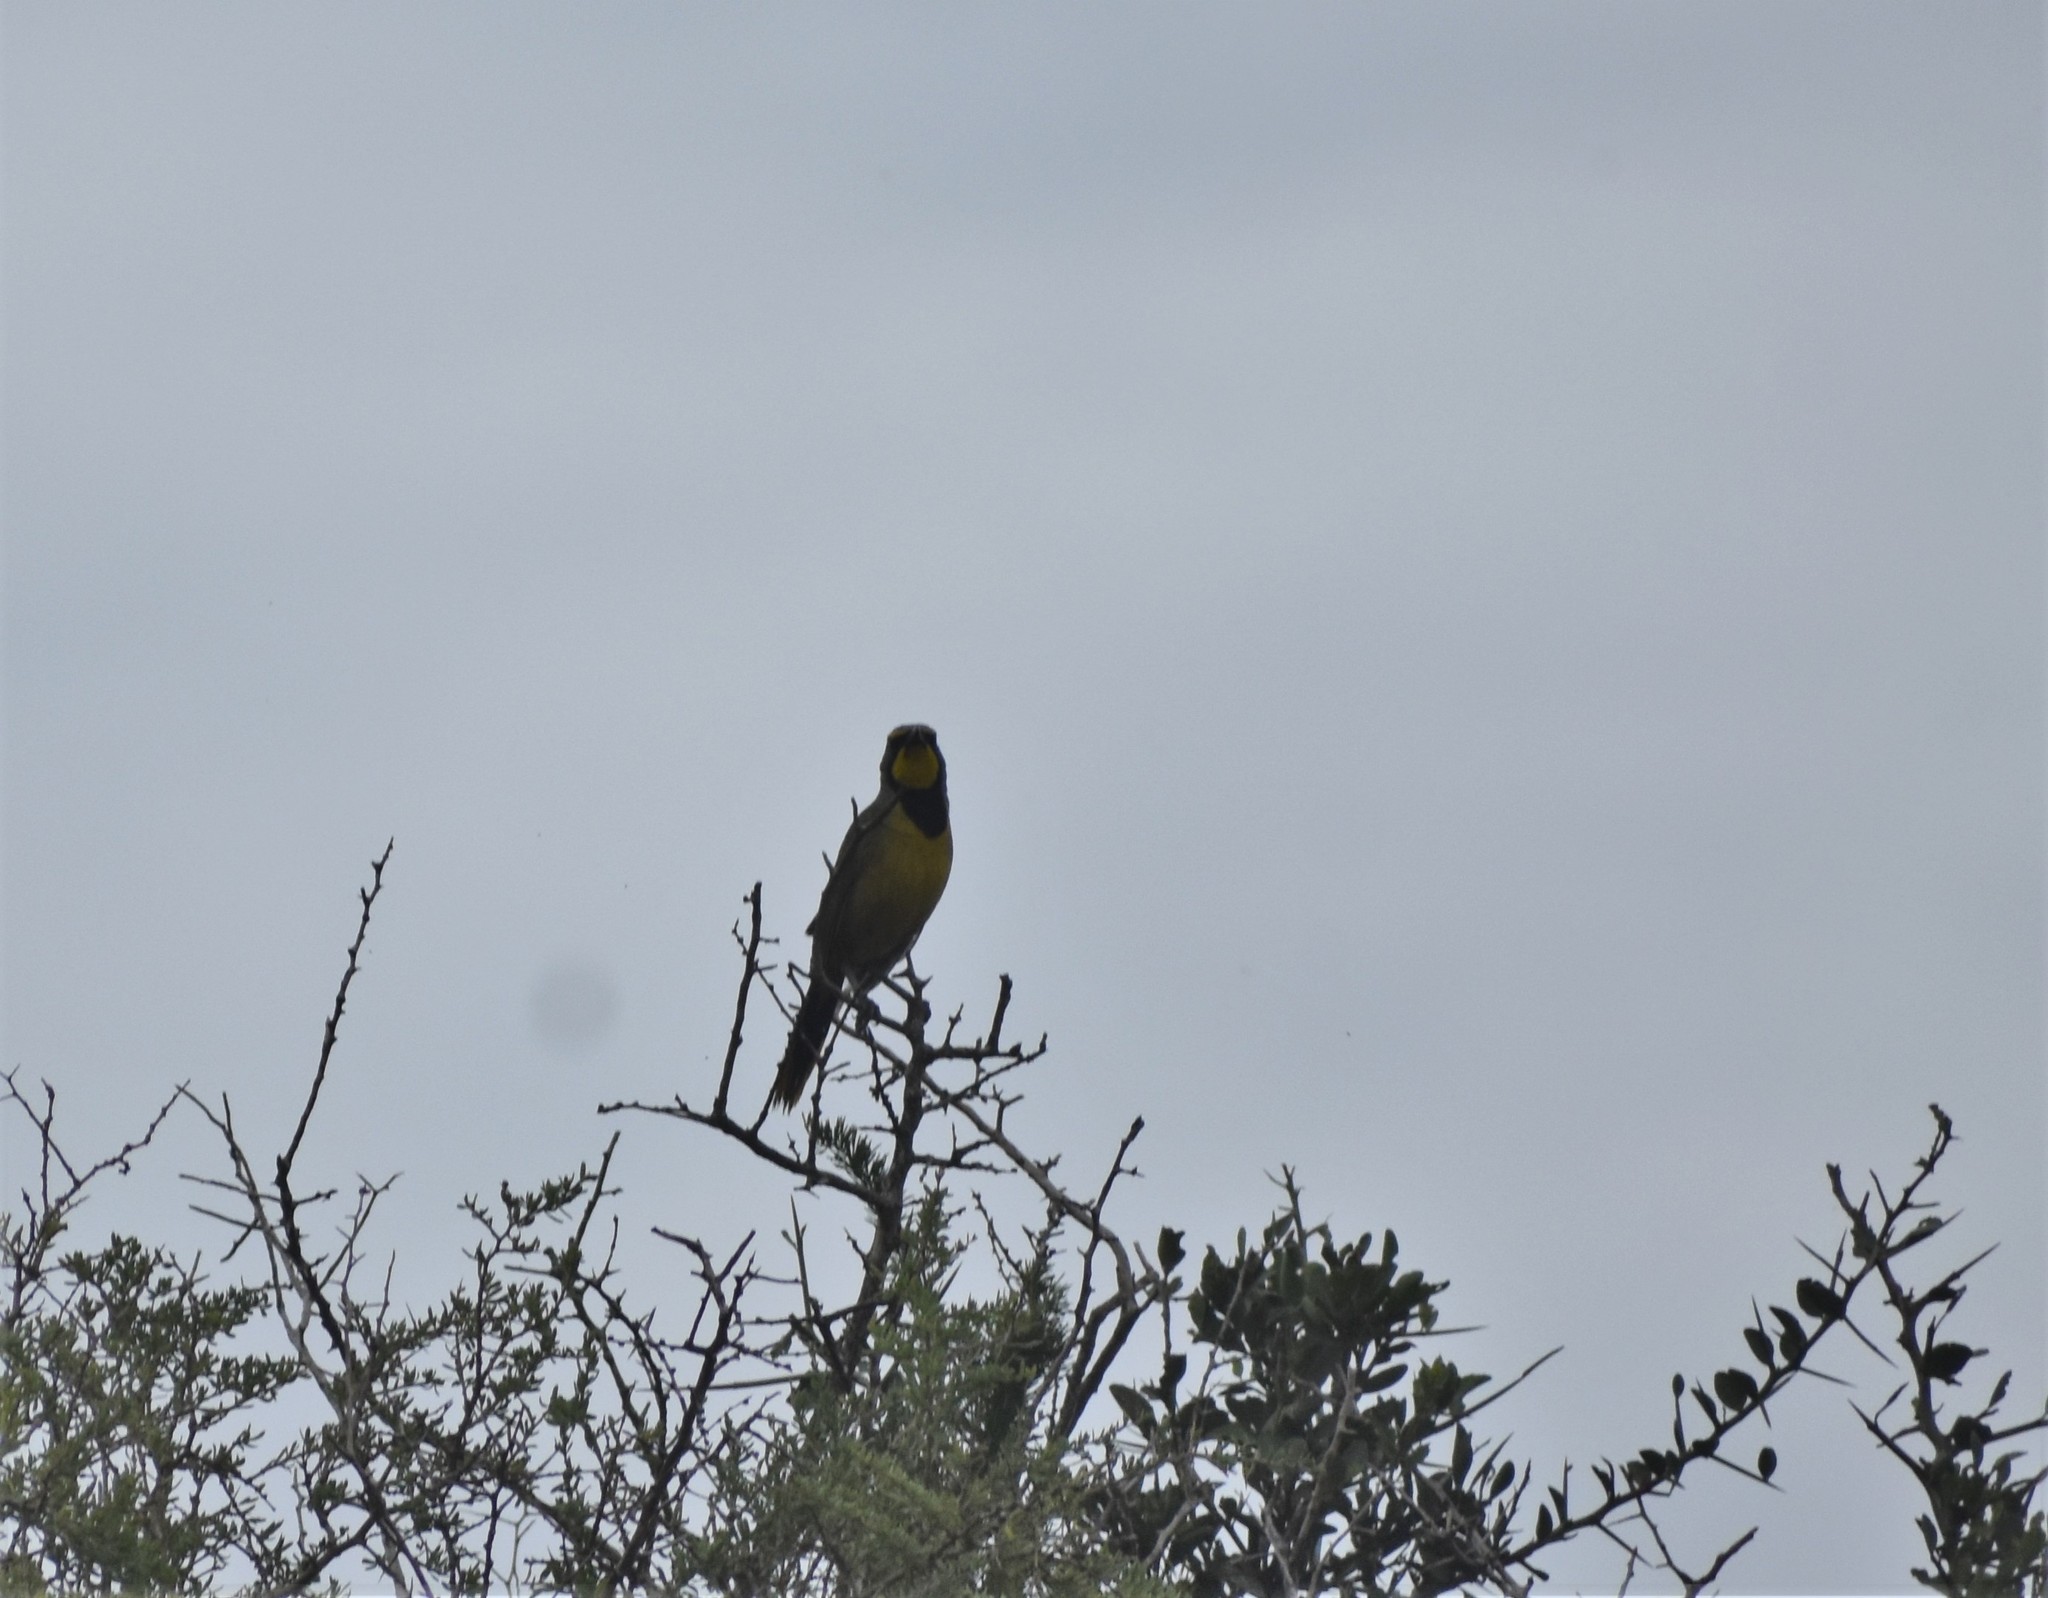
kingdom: Animalia
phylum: Chordata
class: Aves
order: Passeriformes
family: Malaconotidae
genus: Telophorus
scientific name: Telophorus zeylonus
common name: Bokmakierie
